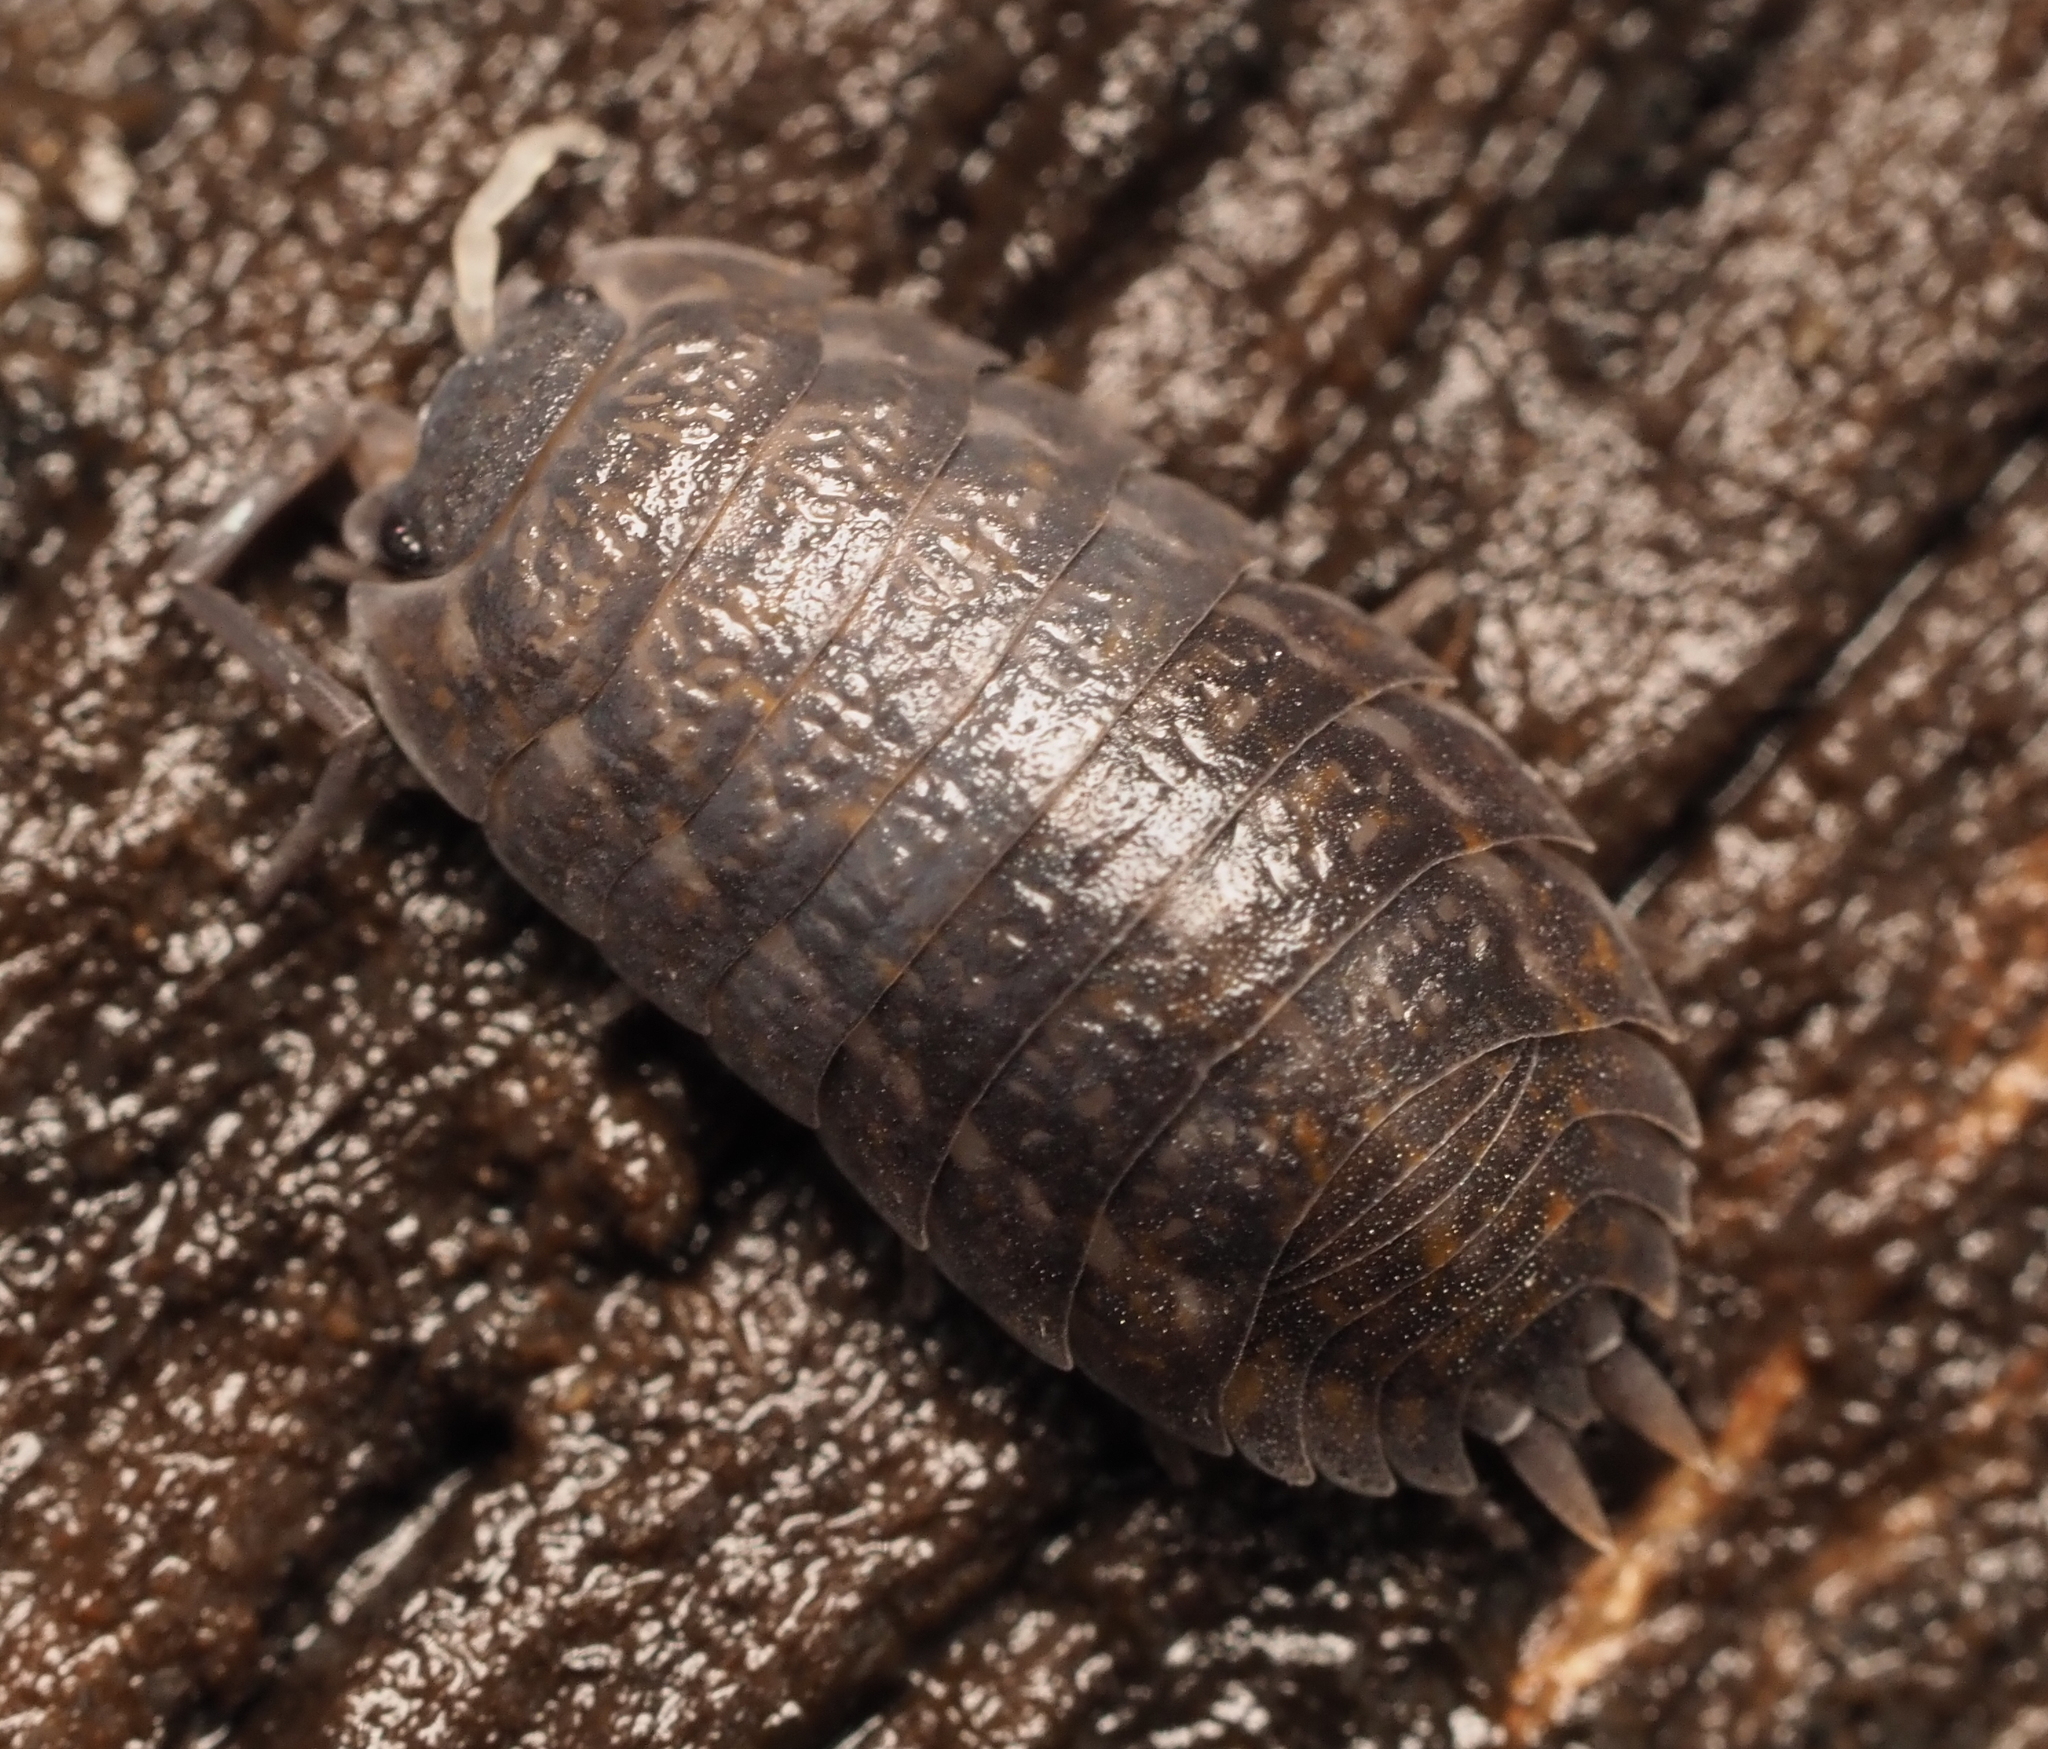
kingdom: Animalia
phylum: Arthropoda
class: Malacostraca
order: Isopoda
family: Trachelipodidae
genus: Trachelipus
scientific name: Trachelipus rathkii
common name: Isopod
